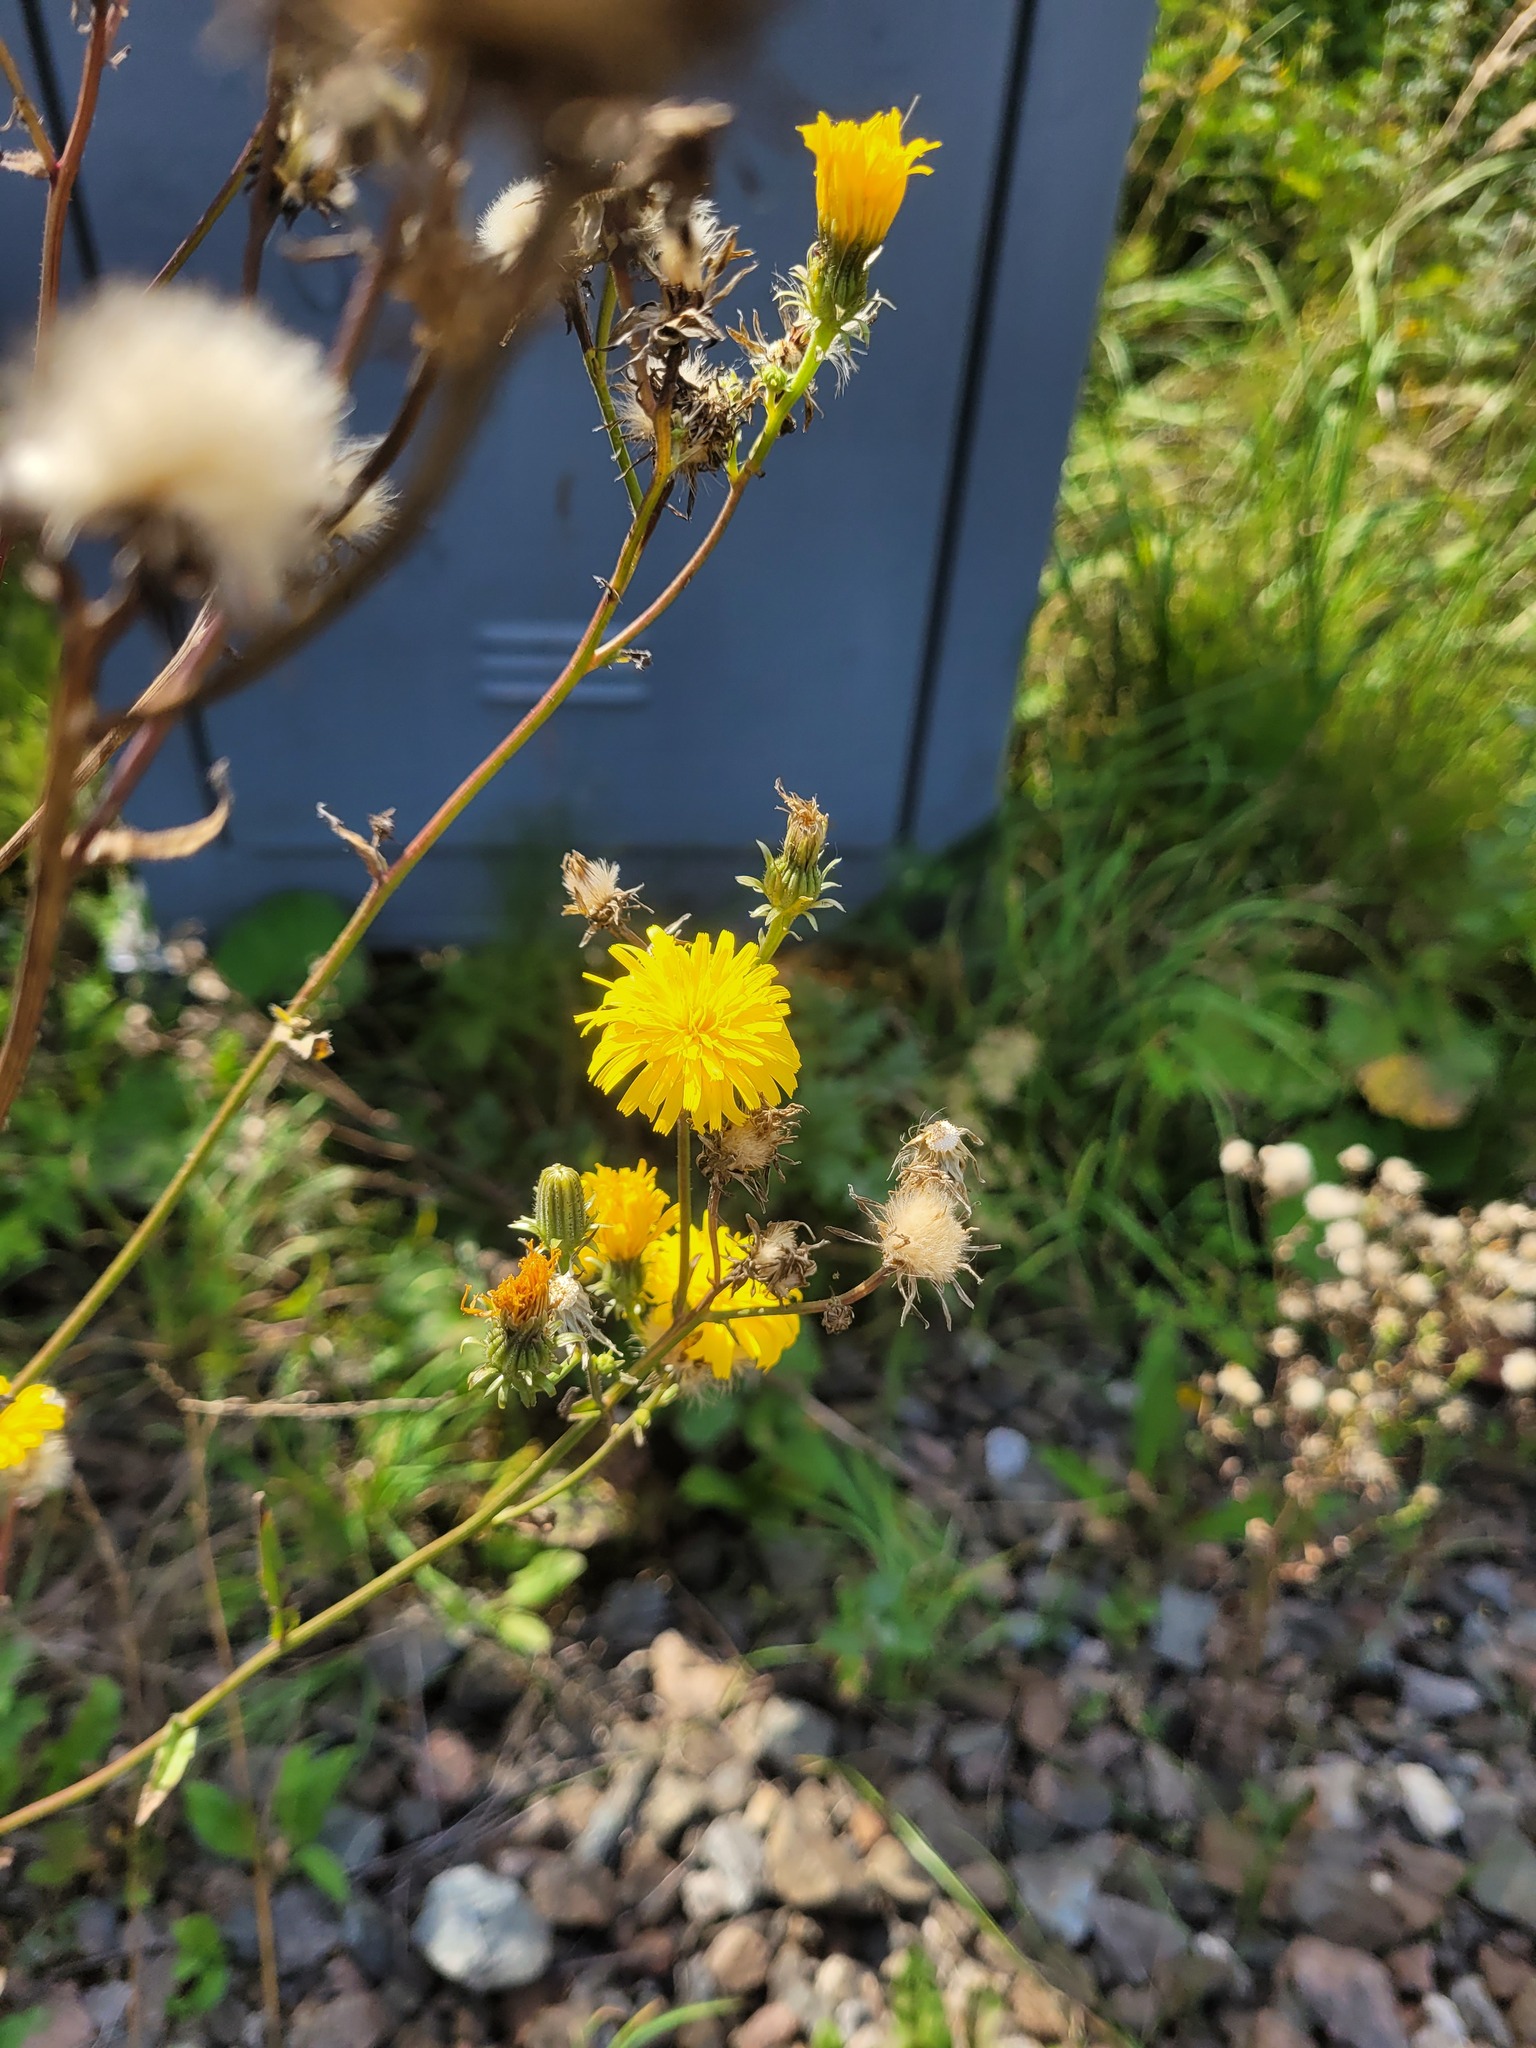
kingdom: Plantae
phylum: Tracheophyta
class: Magnoliopsida
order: Asterales
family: Asteraceae
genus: Picris
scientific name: Picris hieracioides
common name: Hawkweed oxtongue
